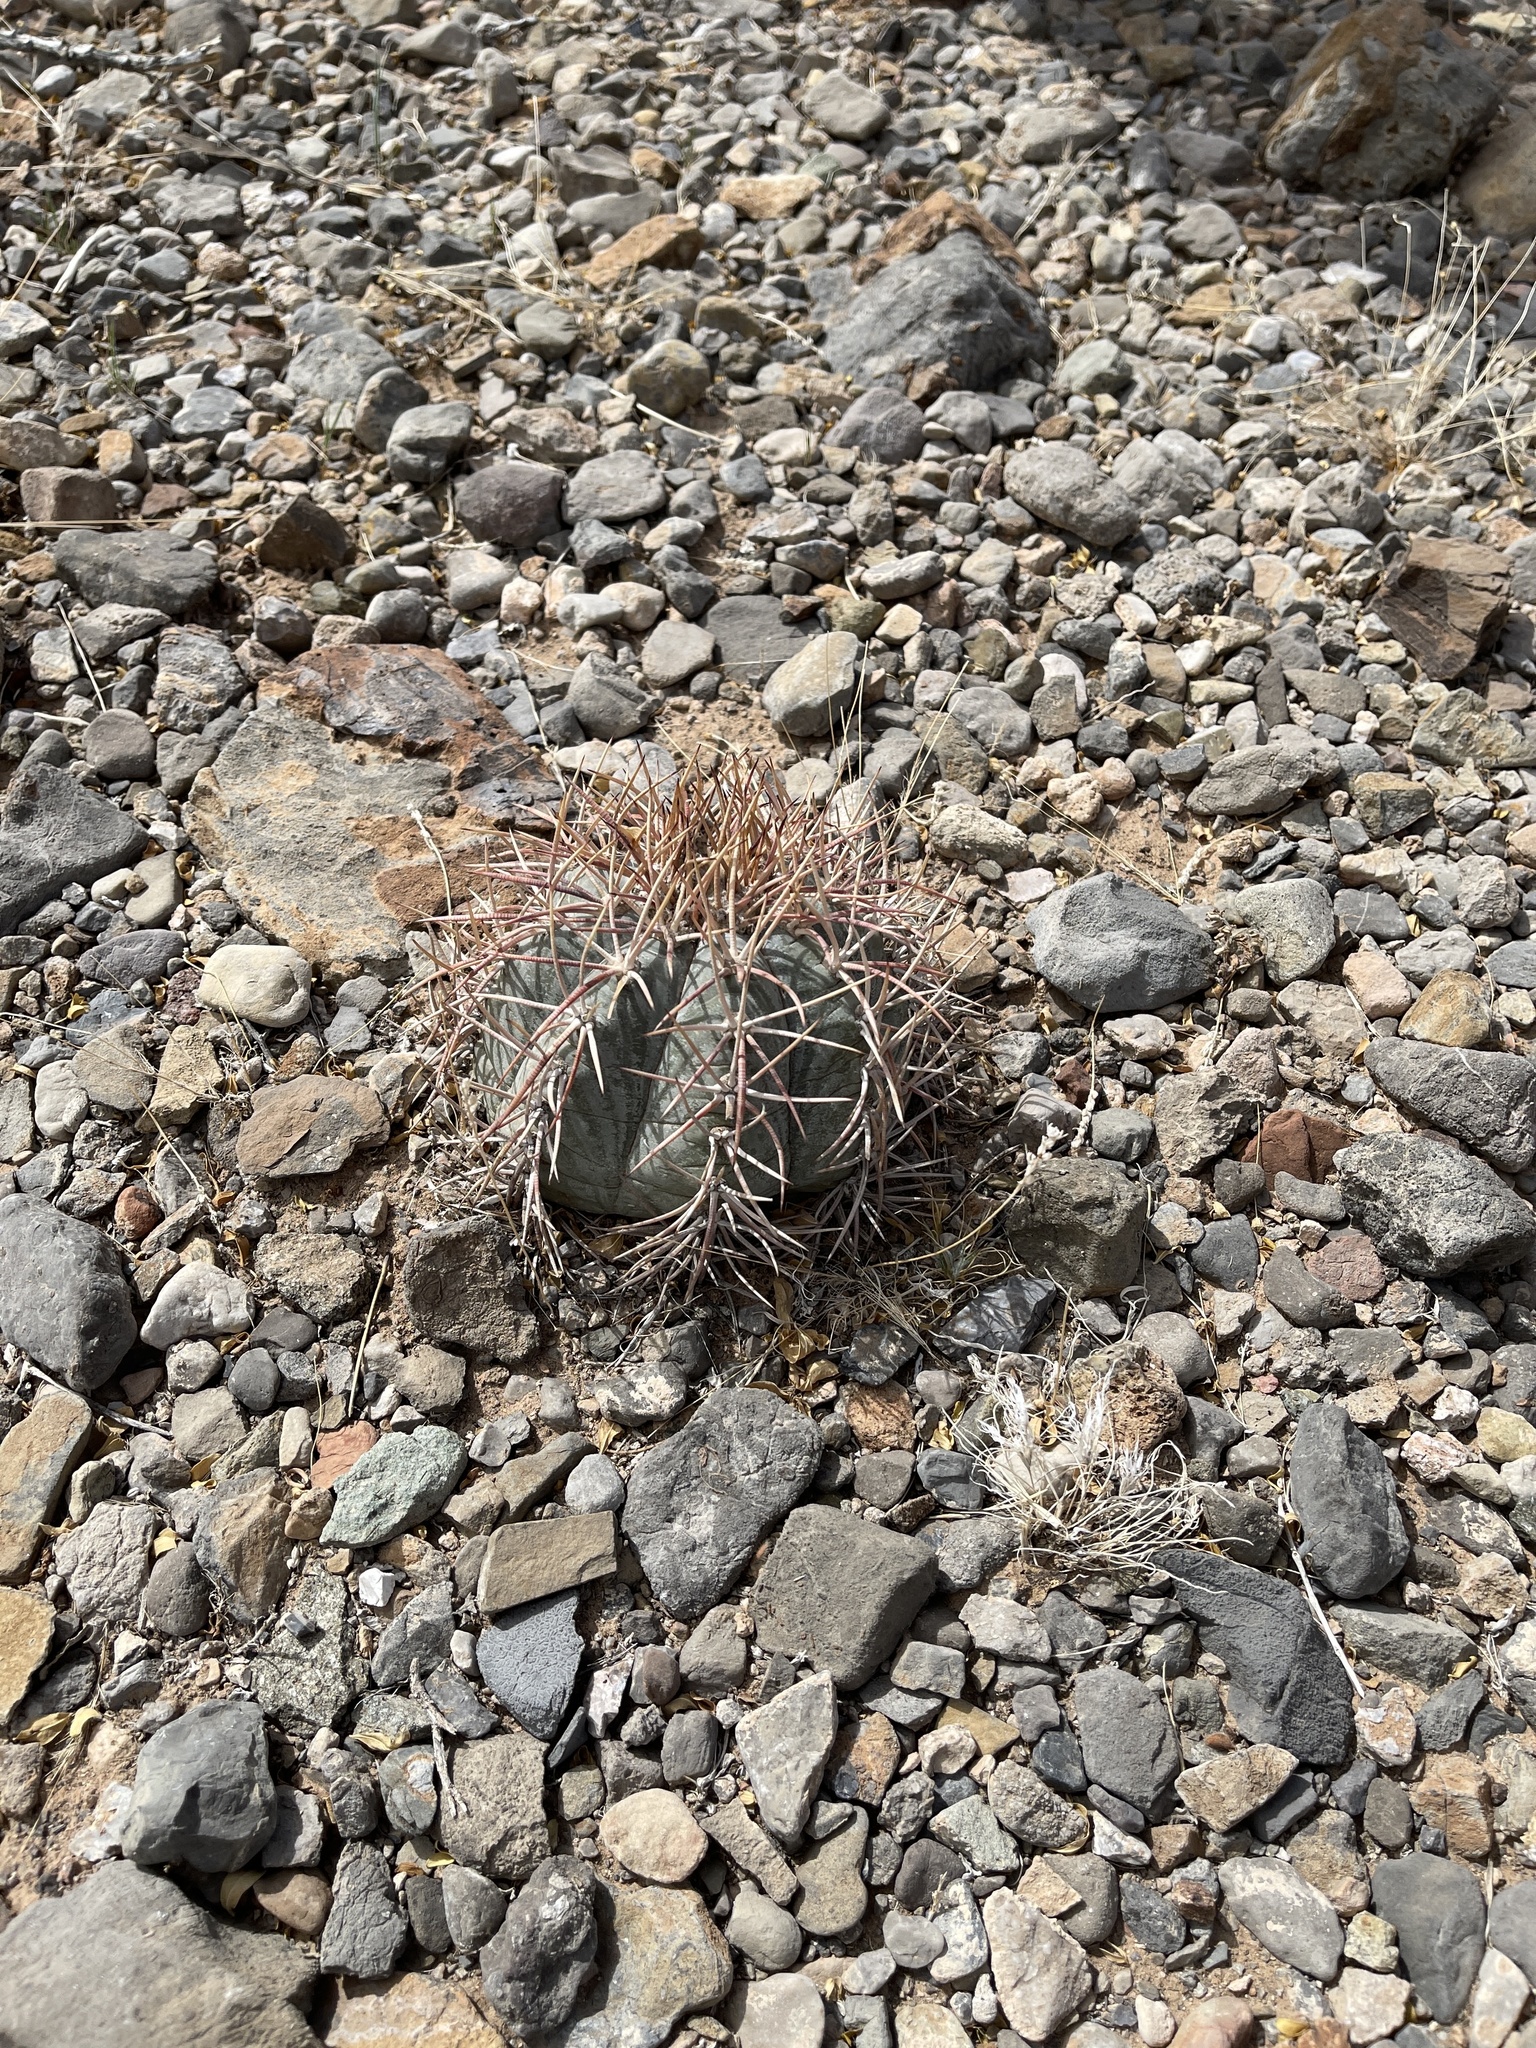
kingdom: Plantae
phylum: Tracheophyta
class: Magnoliopsida
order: Caryophyllales
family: Cactaceae
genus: Echinocactus
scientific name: Echinocactus horizonthalonius
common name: Devilshead
